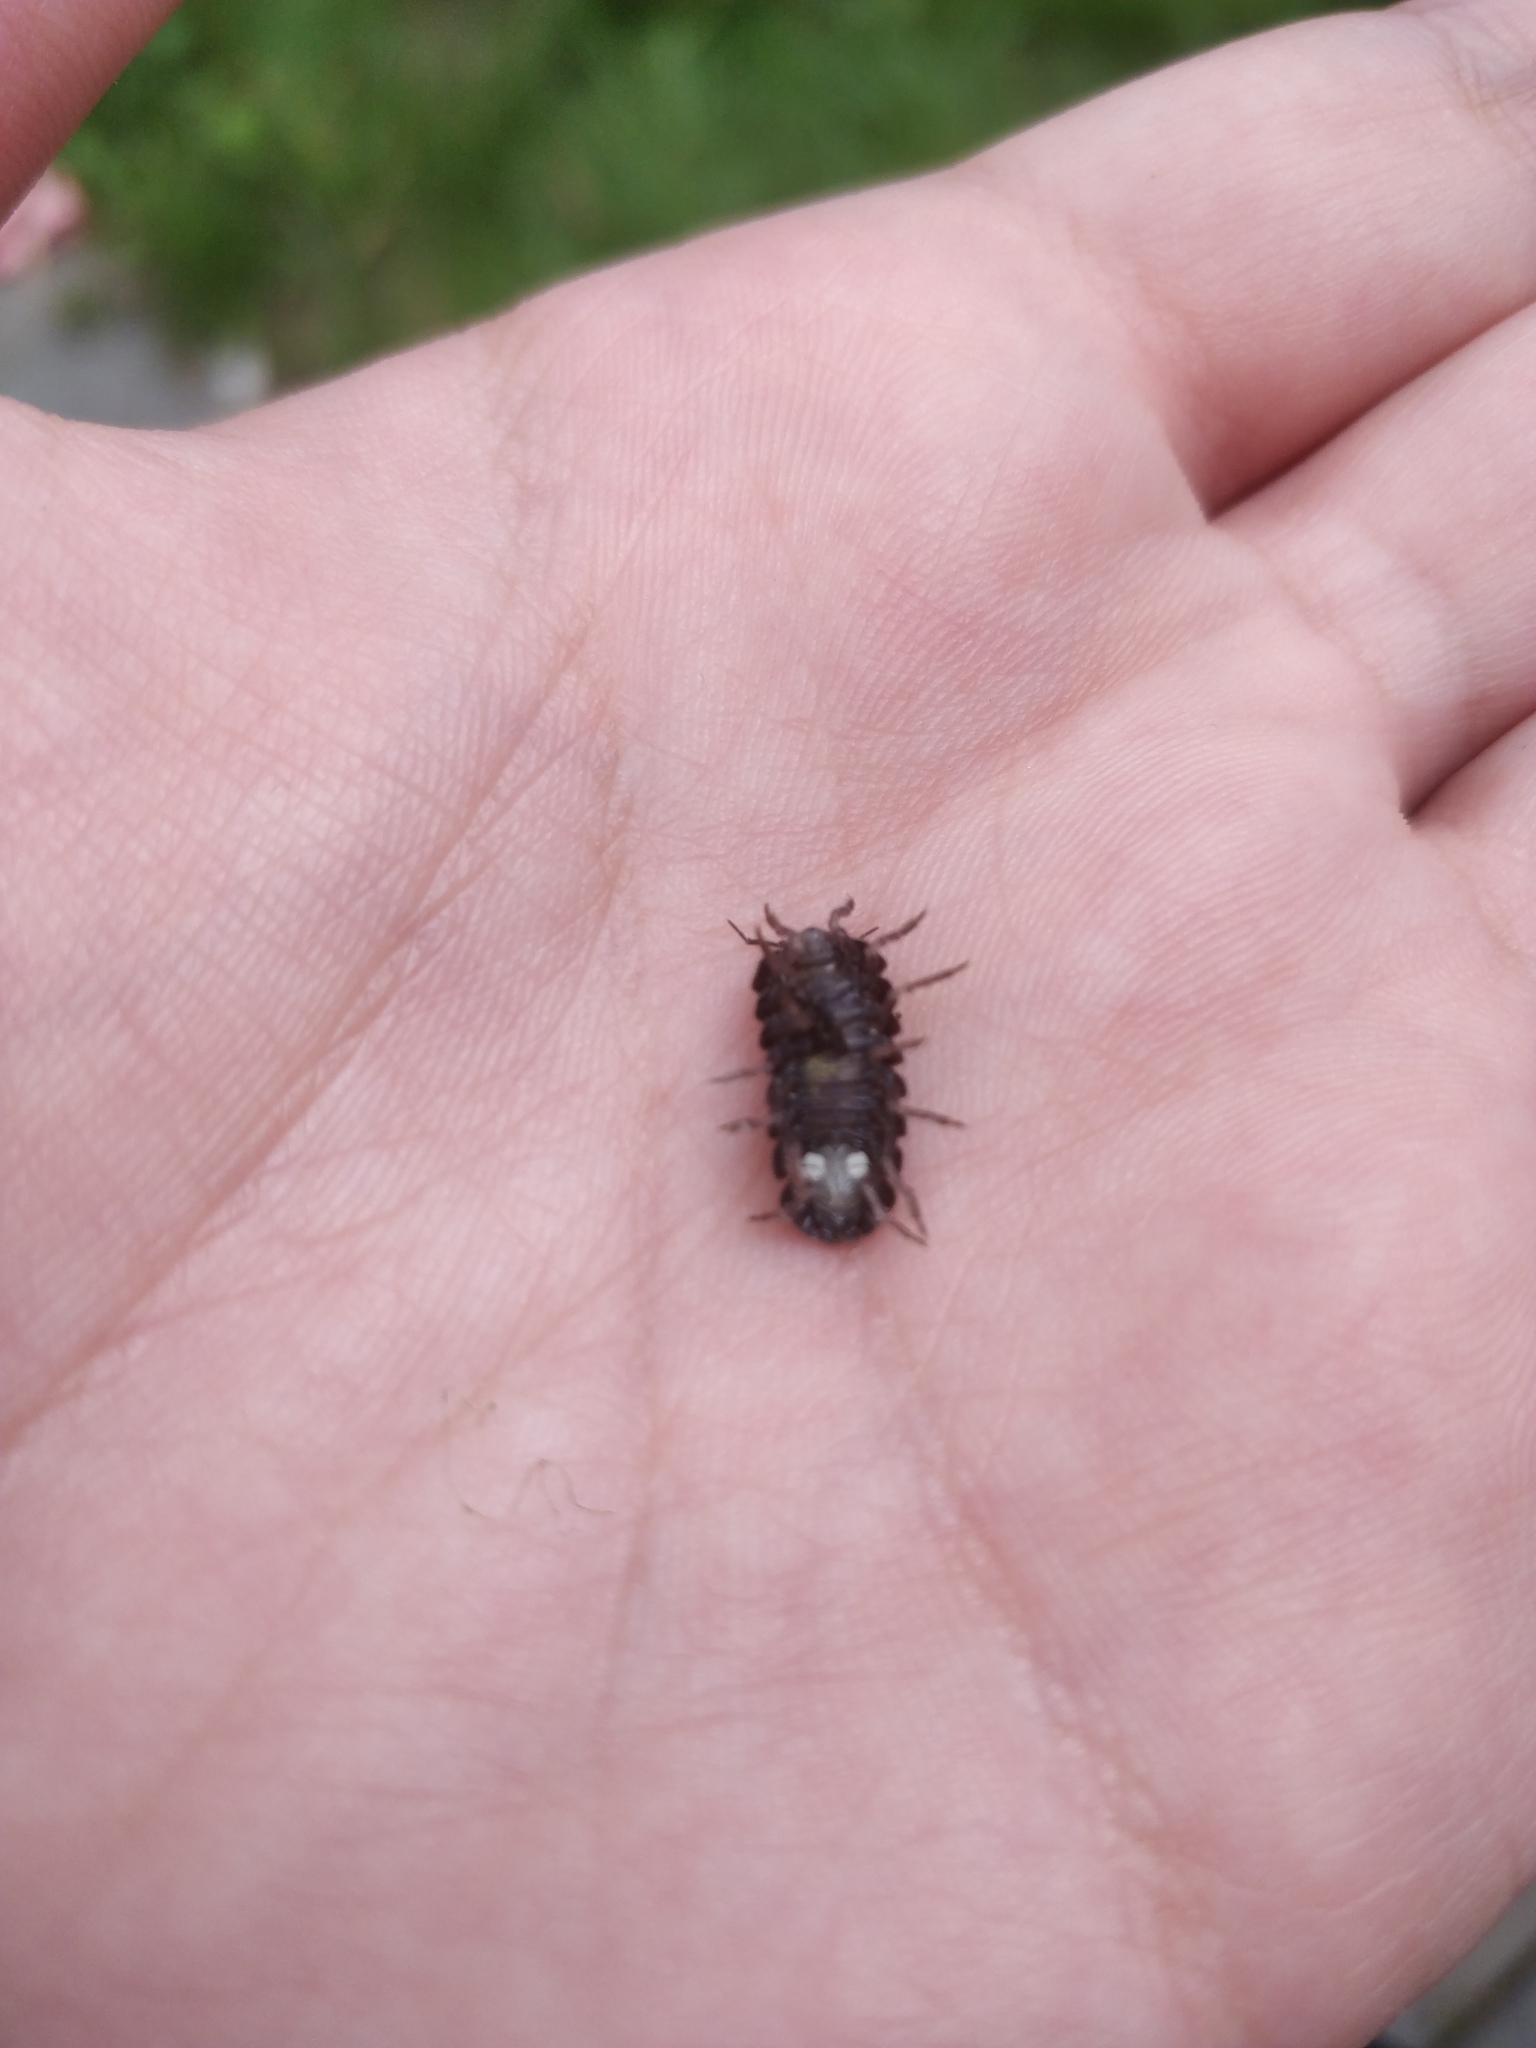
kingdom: Animalia
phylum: Arthropoda
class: Malacostraca
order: Isopoda
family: Armadillidiidae
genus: Armadillidium
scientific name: Armadillidium vulgare
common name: Common pill woodlouse
